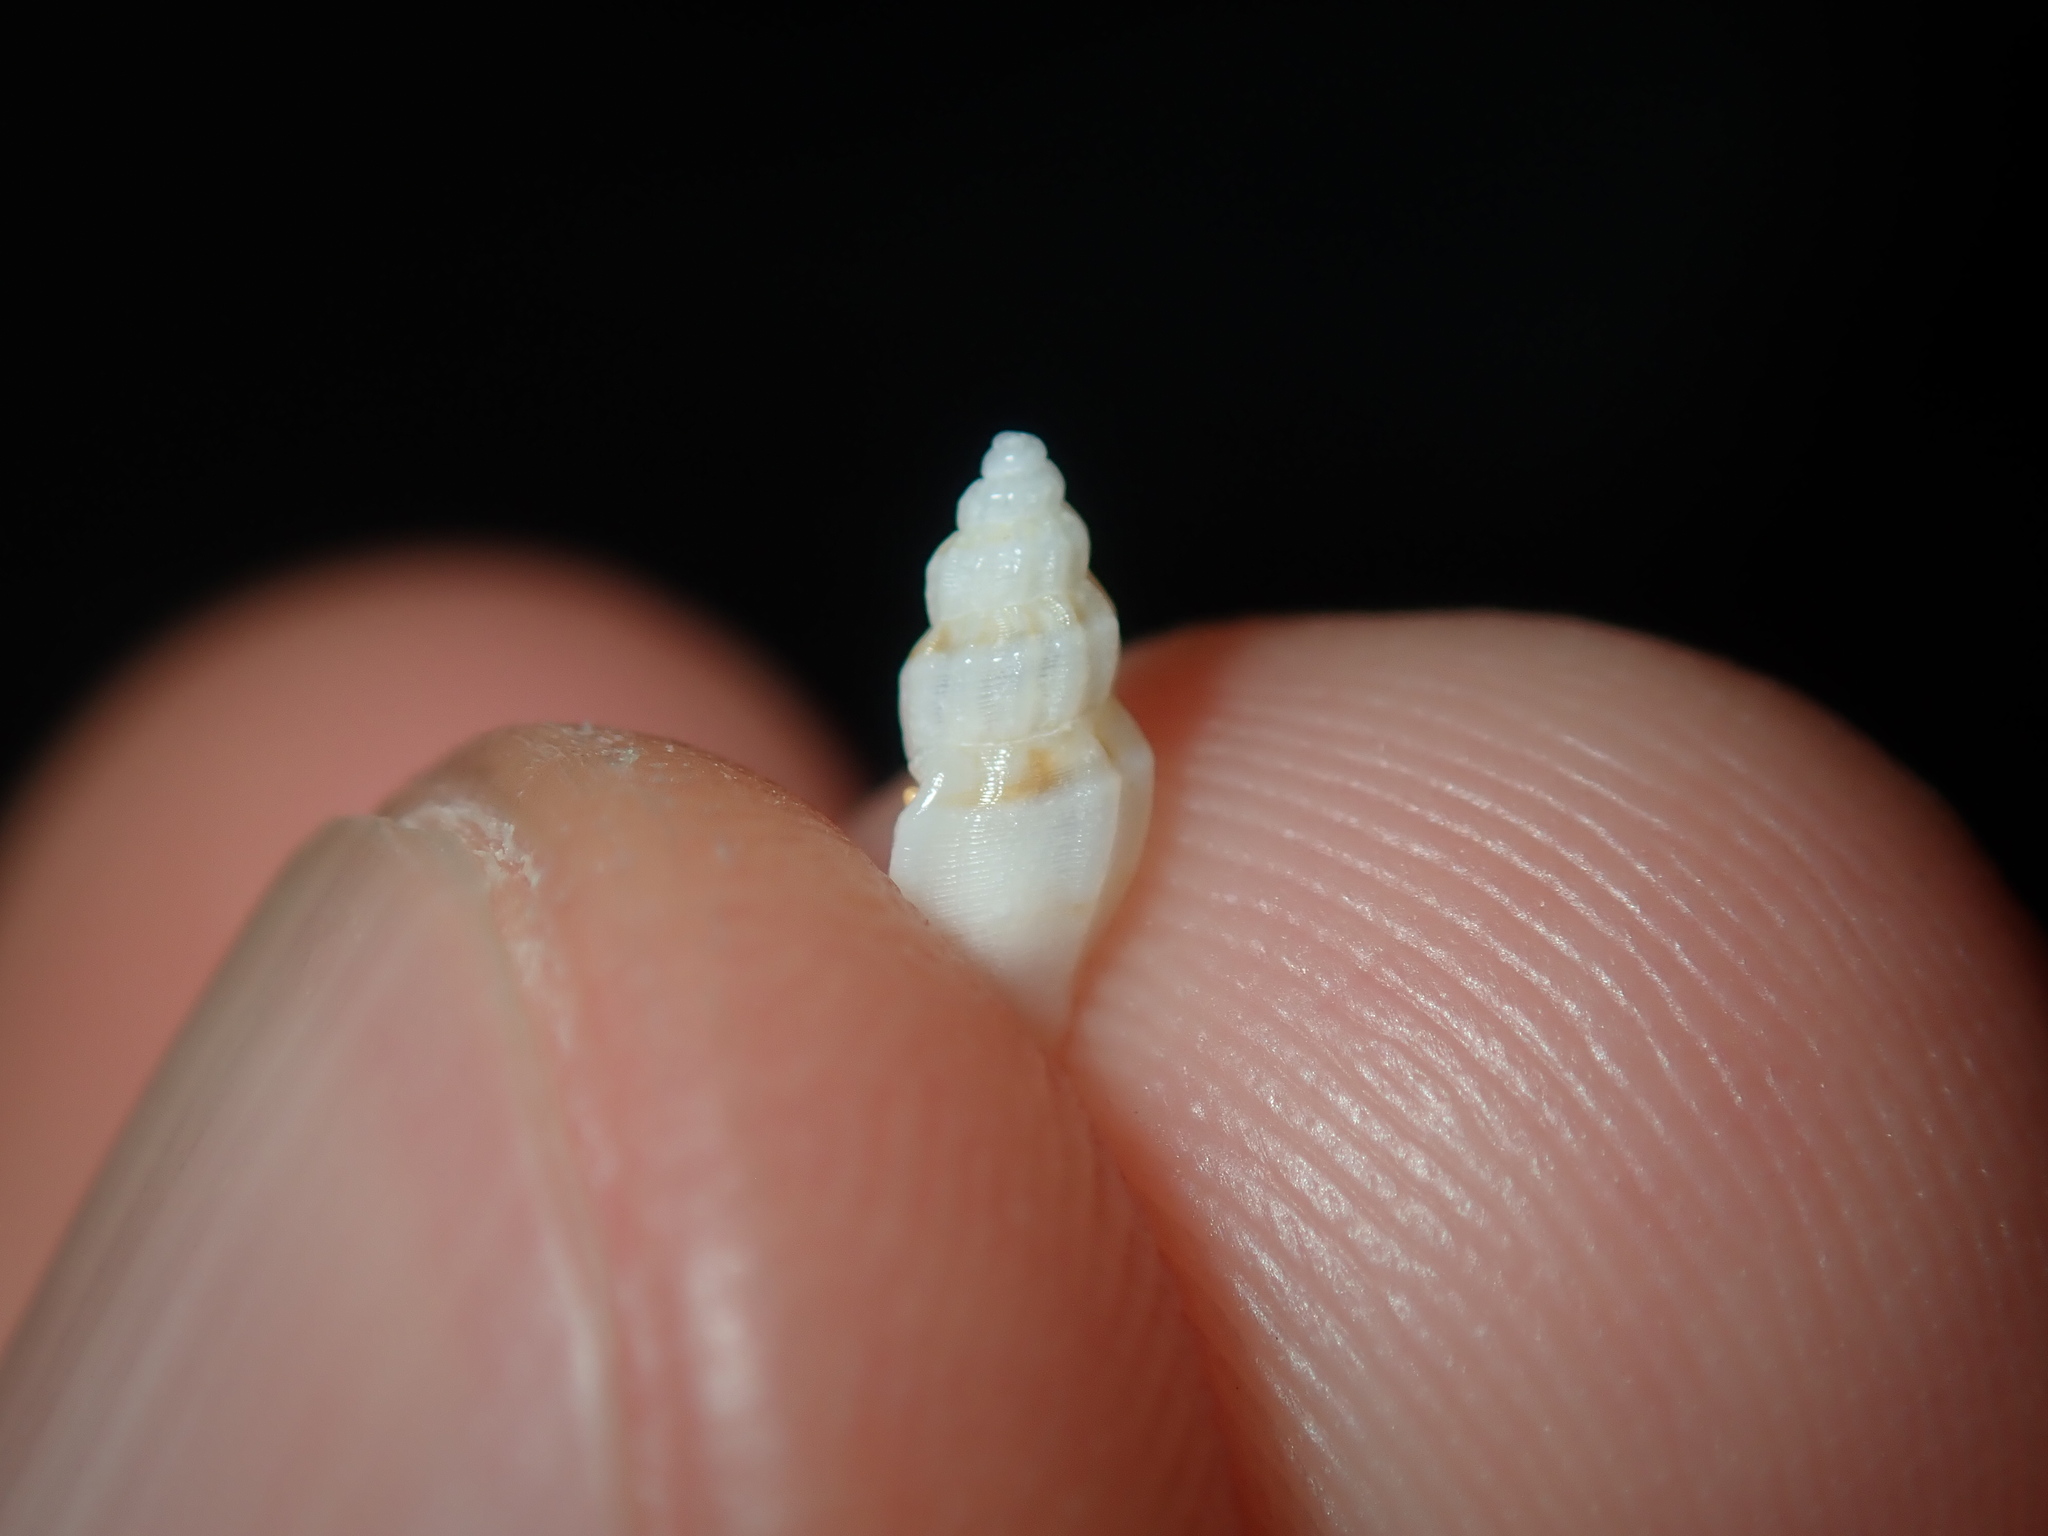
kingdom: Animalia
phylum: Mollusca
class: Gastropoda
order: Neogastropoda
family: Mangeliidae
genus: Guraleus
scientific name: Guraleus pictus
